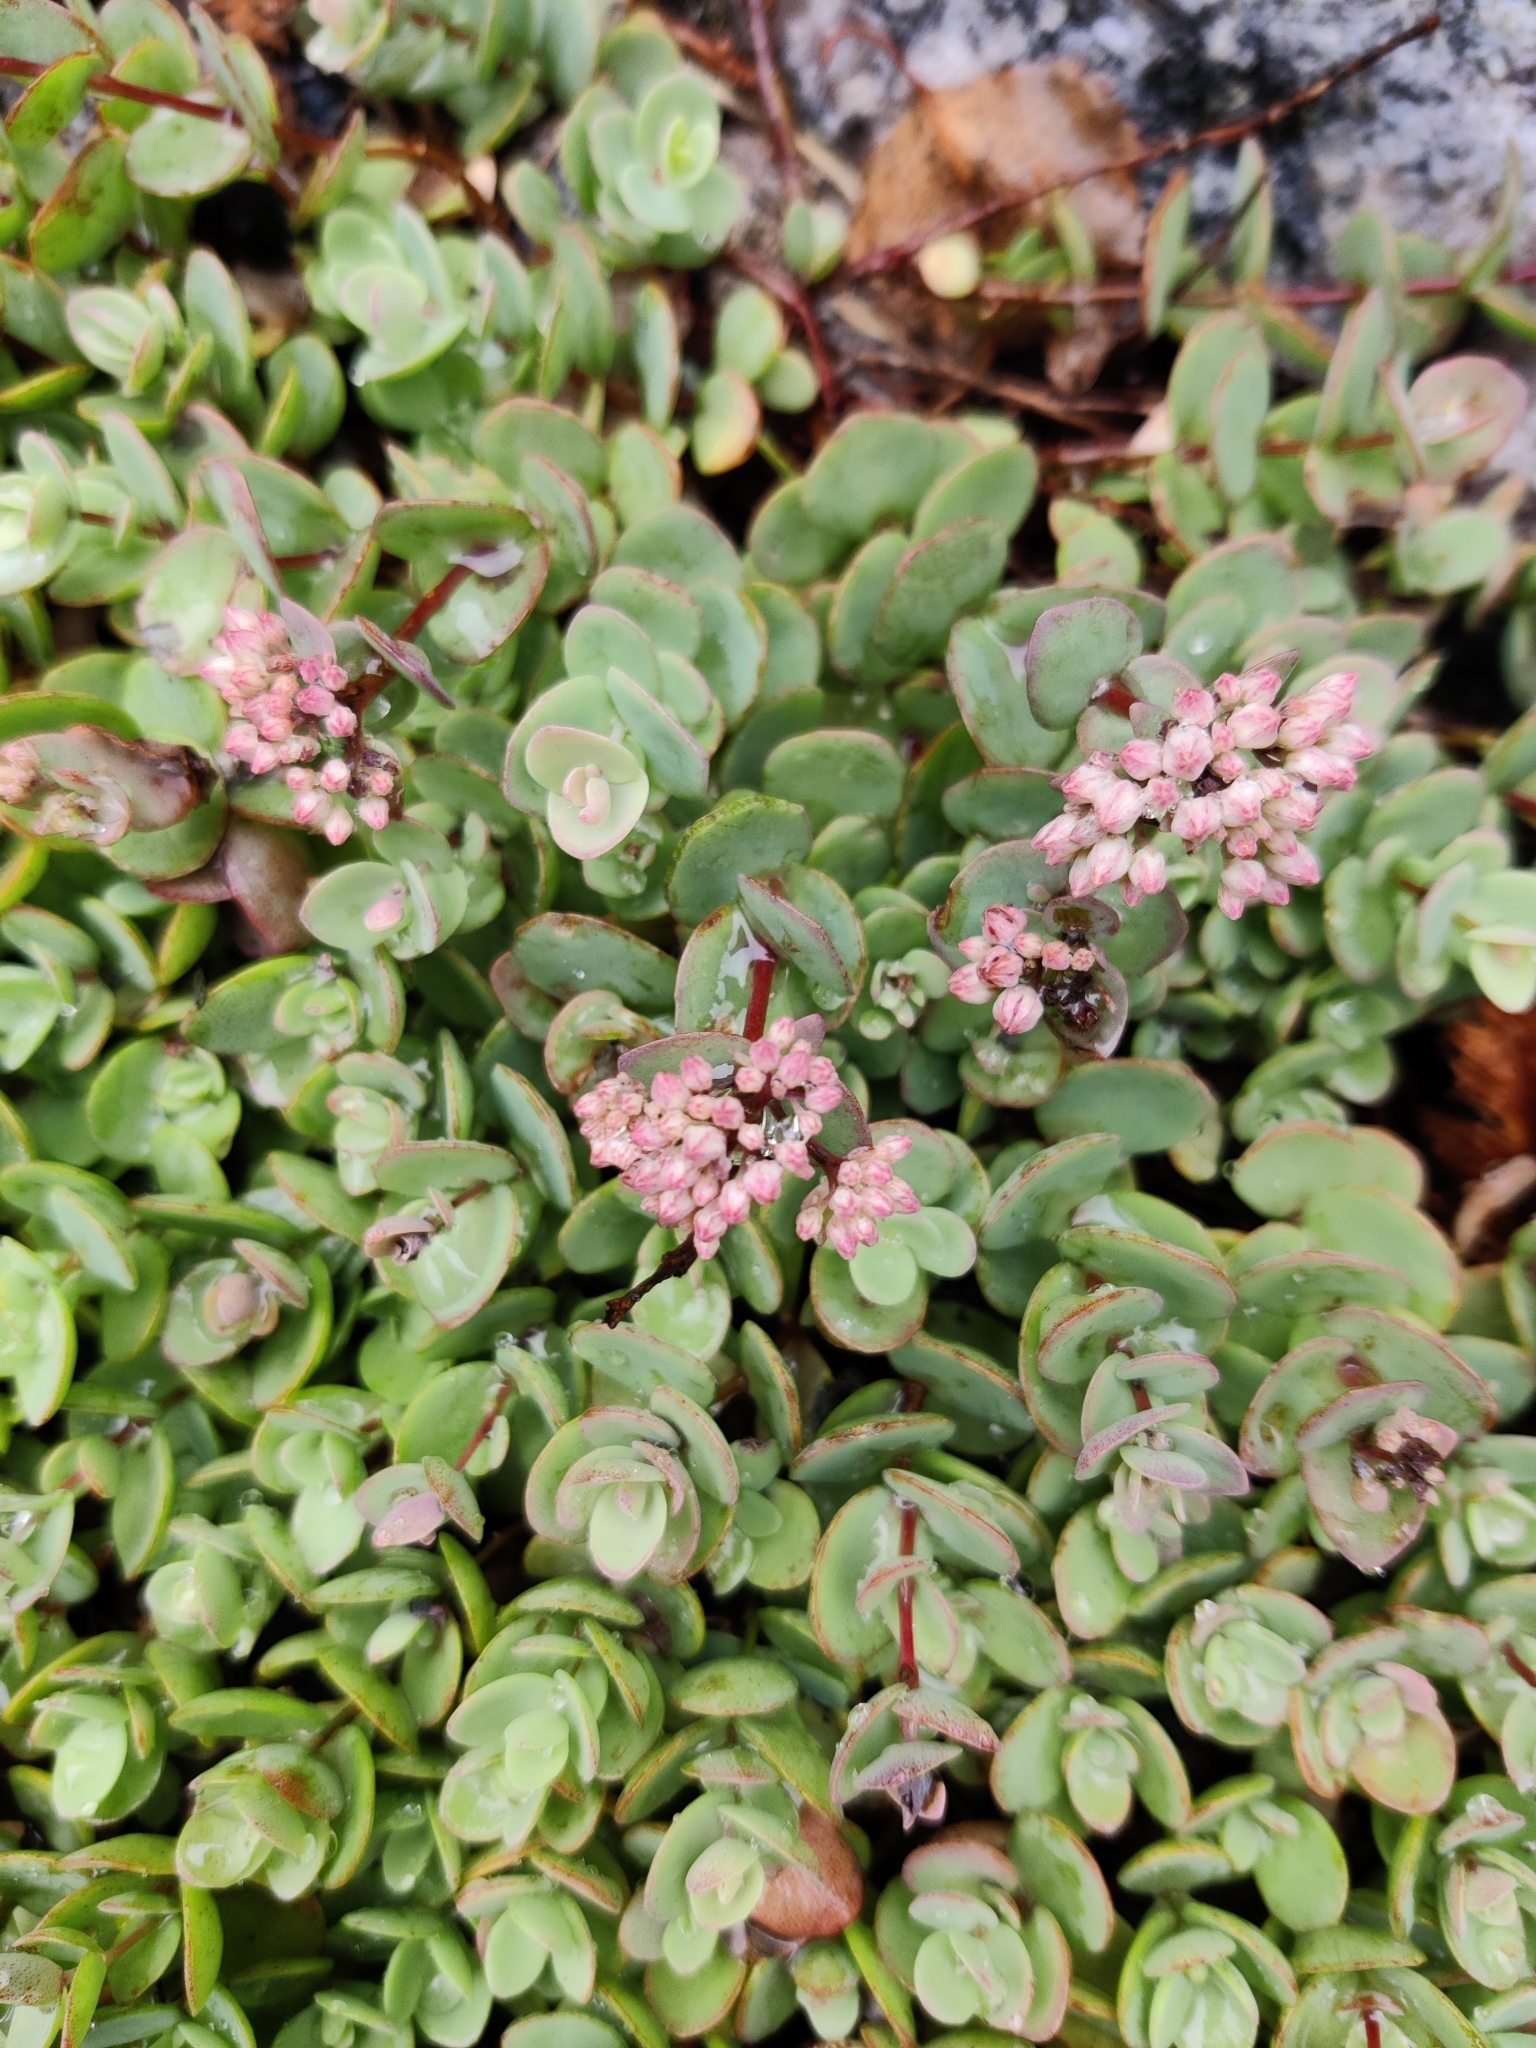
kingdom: Plantae
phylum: Tracheophyta
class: Magnoliopsida
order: Saxifragales
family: Crassulaceae
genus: Hylotelephium
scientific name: Hylotelephium ewersii
